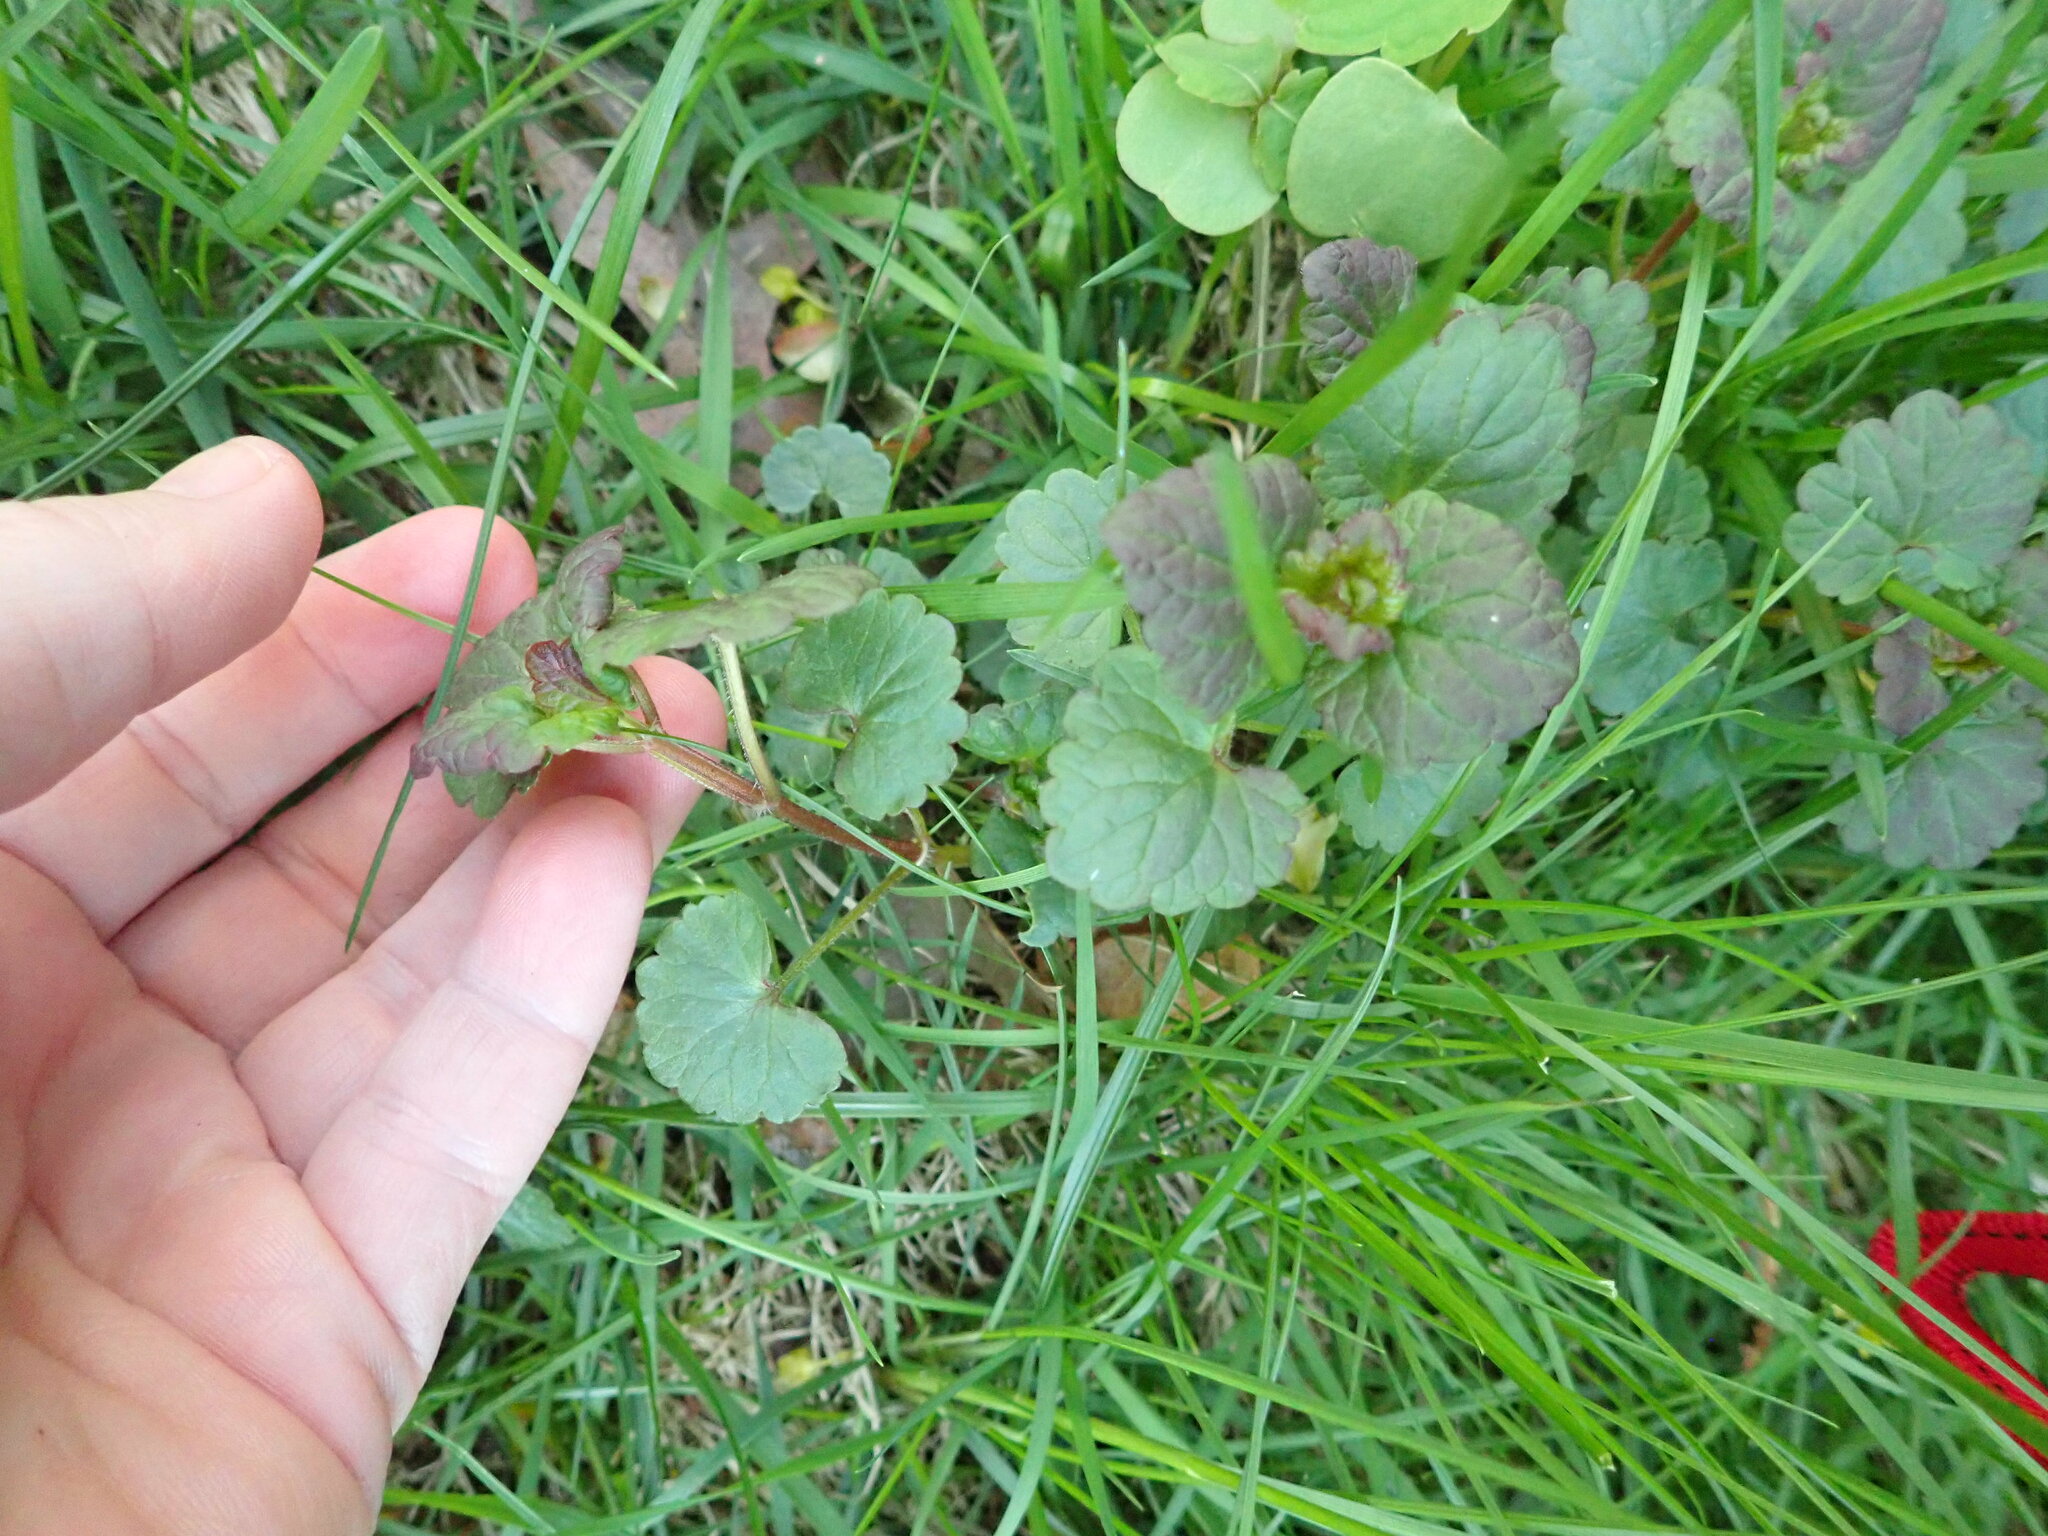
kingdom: Plantae
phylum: Tracheophyta
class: Magnoliopsida
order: Lamiales
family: Lamiaceae
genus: Glechoma
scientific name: Glechoma hederacea
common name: Ground ivy
